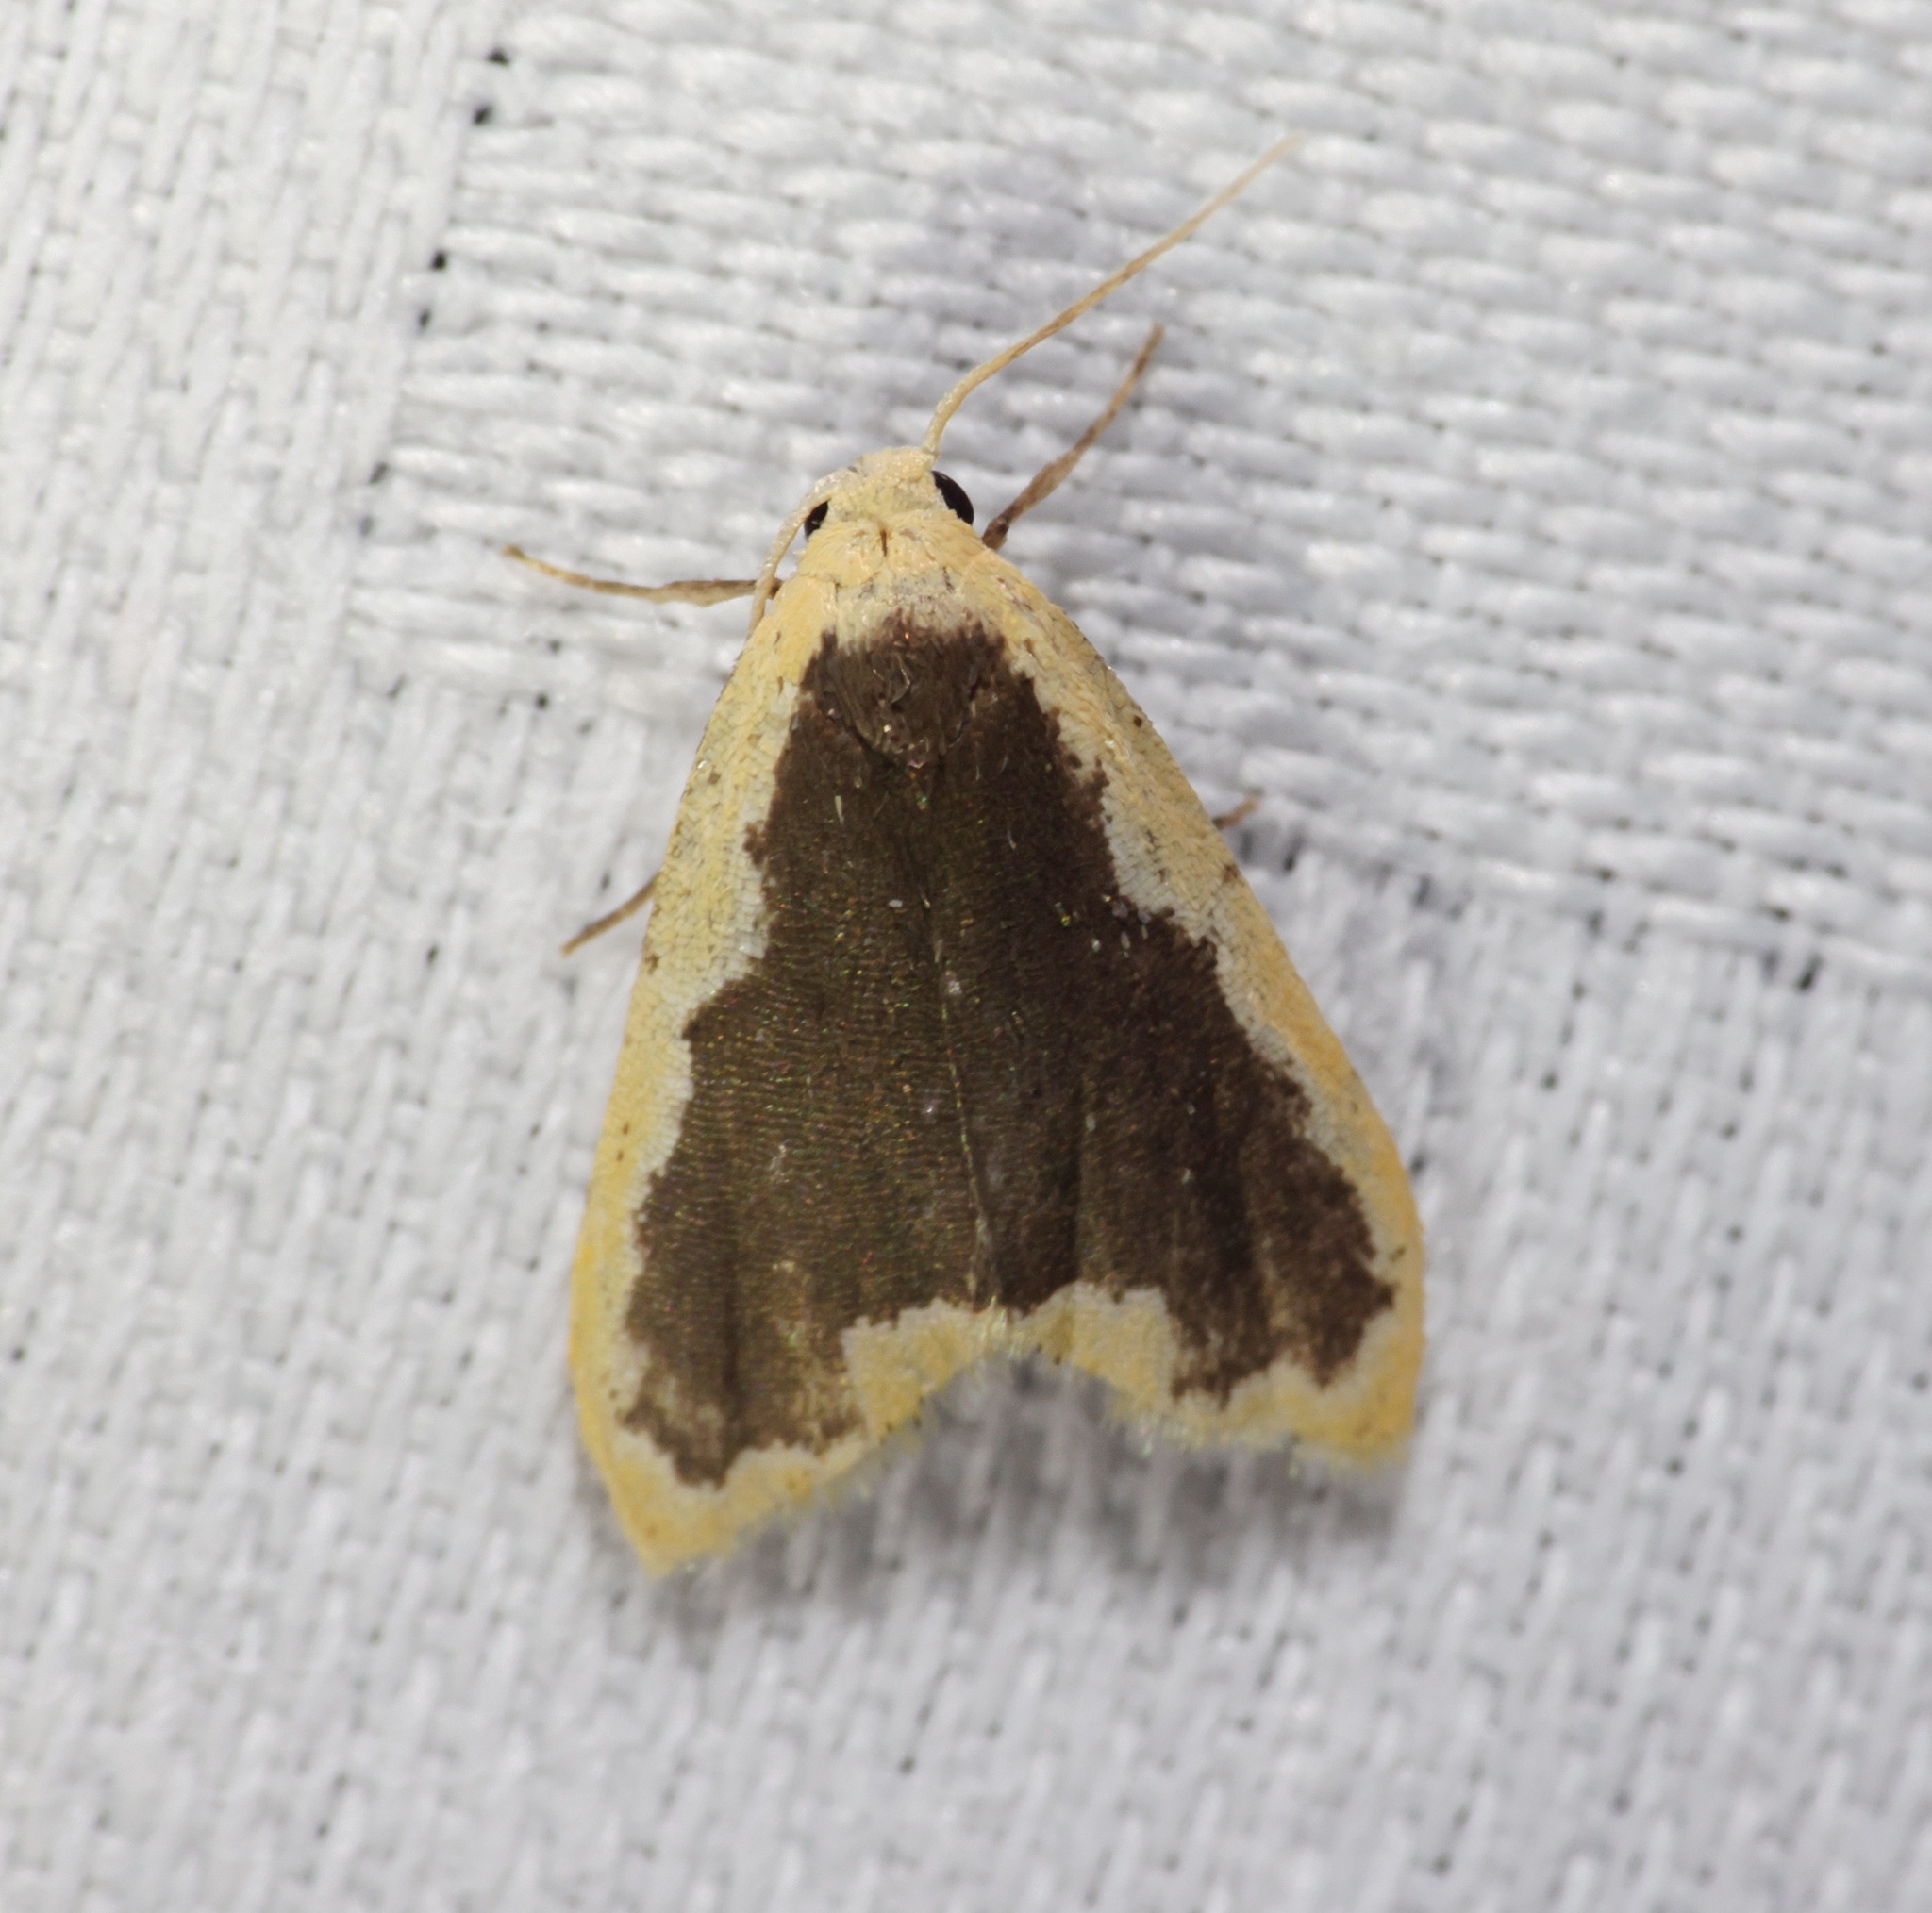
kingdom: Animalia
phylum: Arthropoda
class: Insecta
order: Lepidoptera
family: Erebidae
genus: Diduga
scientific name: Diduga flavicostata
